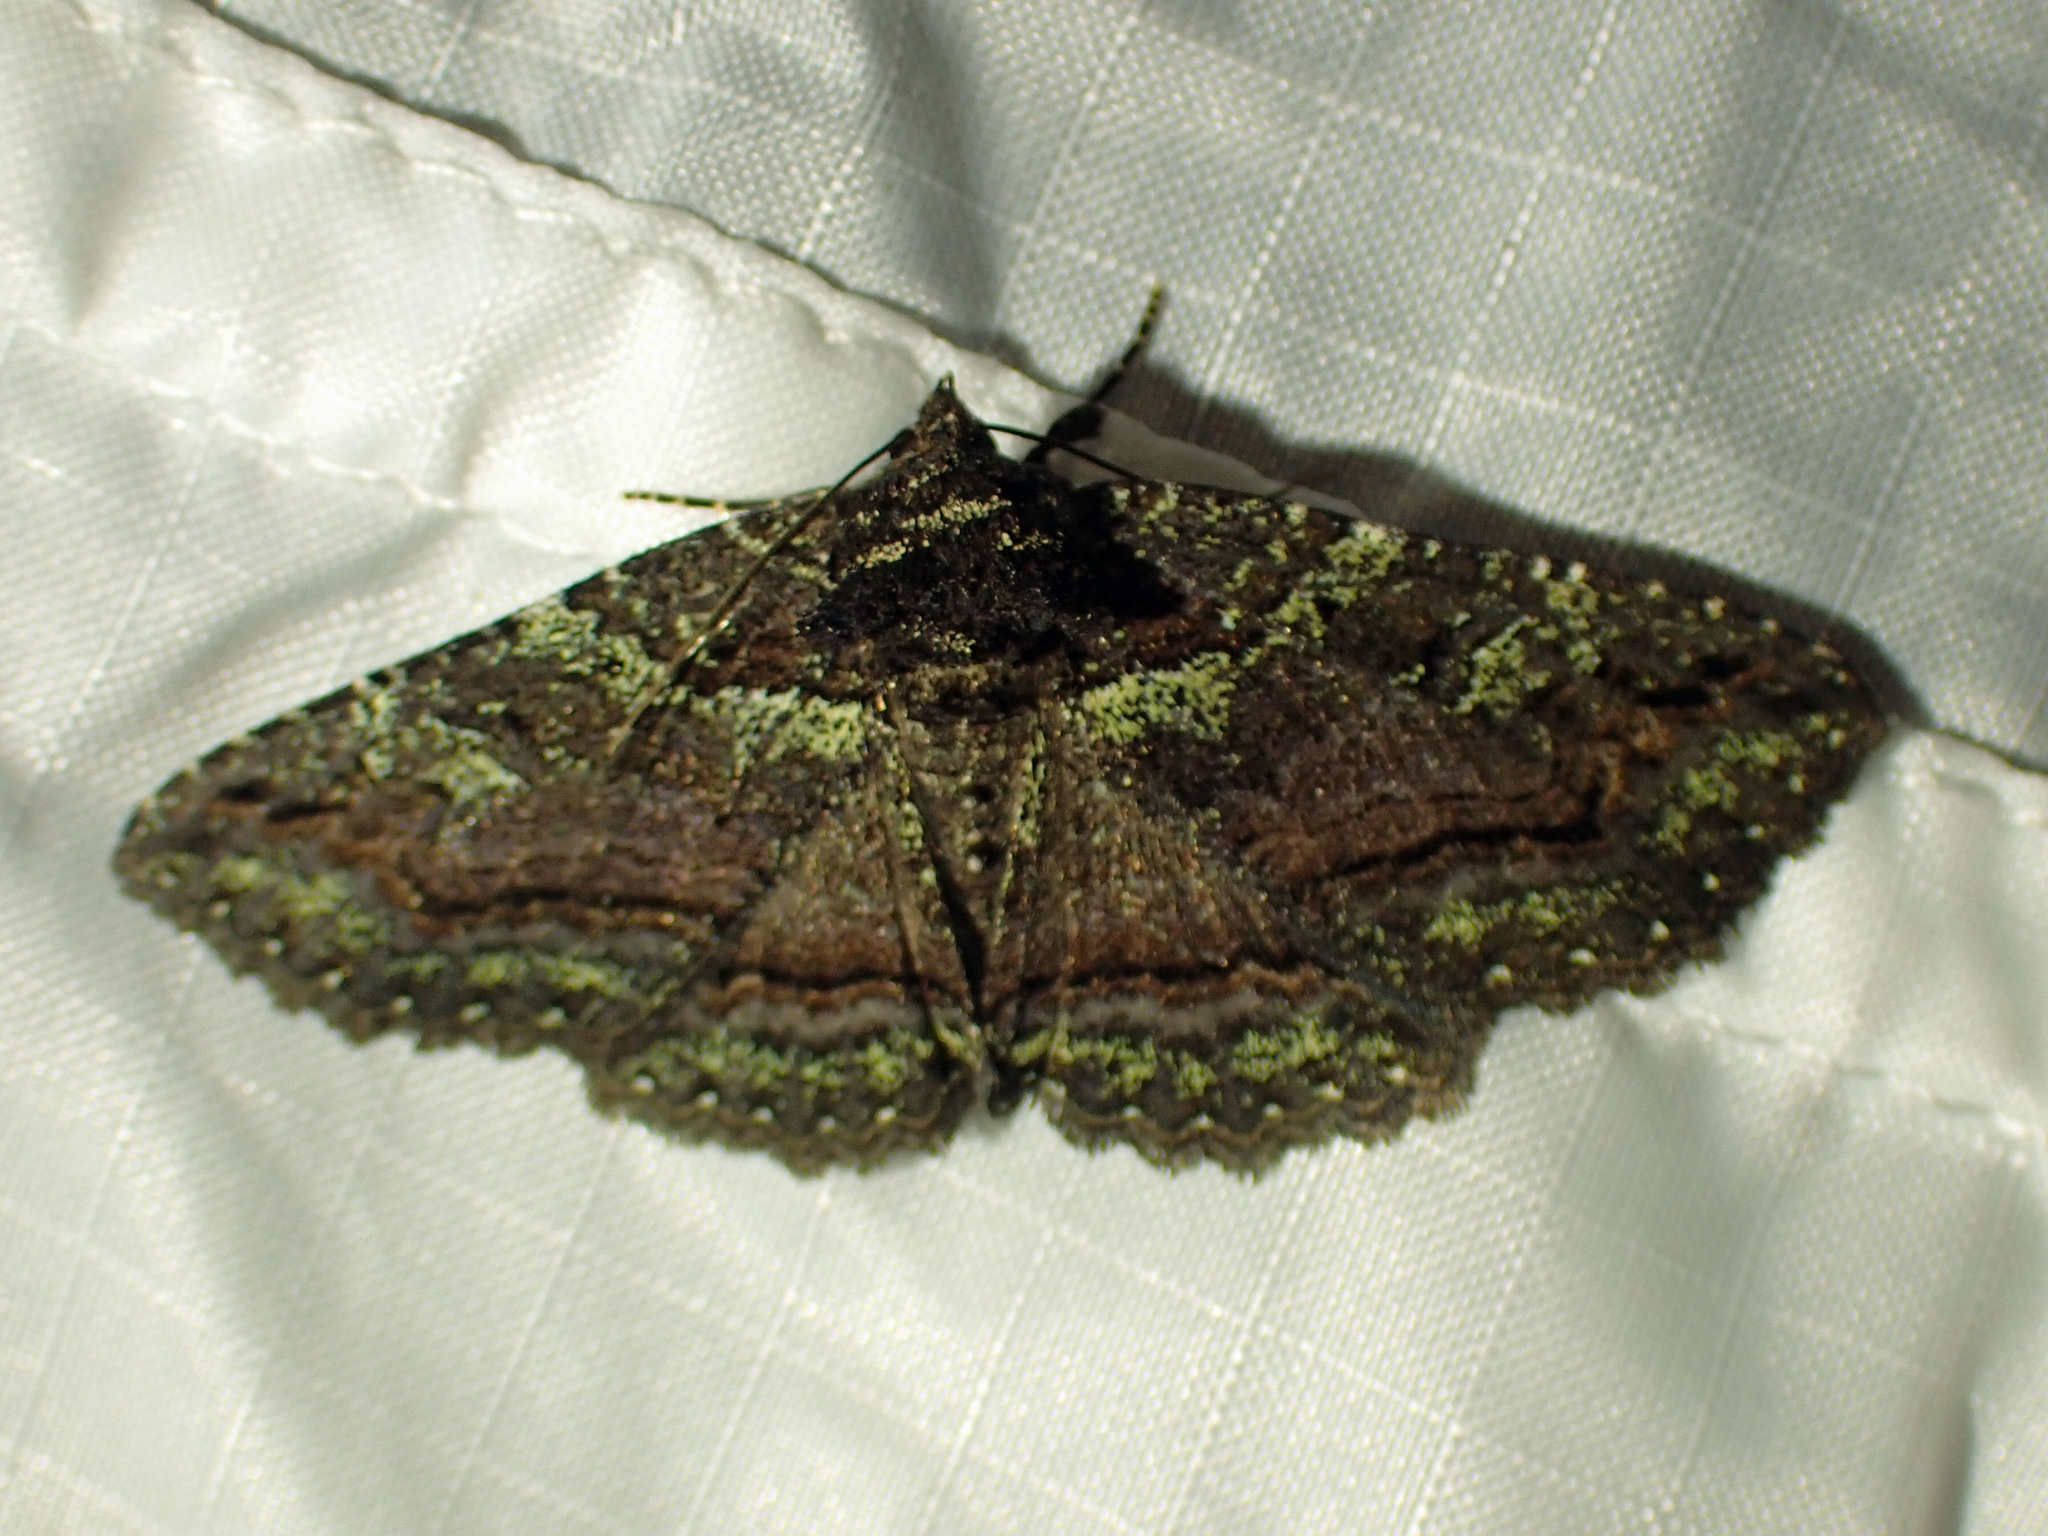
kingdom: Animalia
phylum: Arthropoda
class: Insecta
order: Lepidoptera
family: Erebidae
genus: Zale
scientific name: Zale aeruginosa
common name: Green-dusted zale moth
